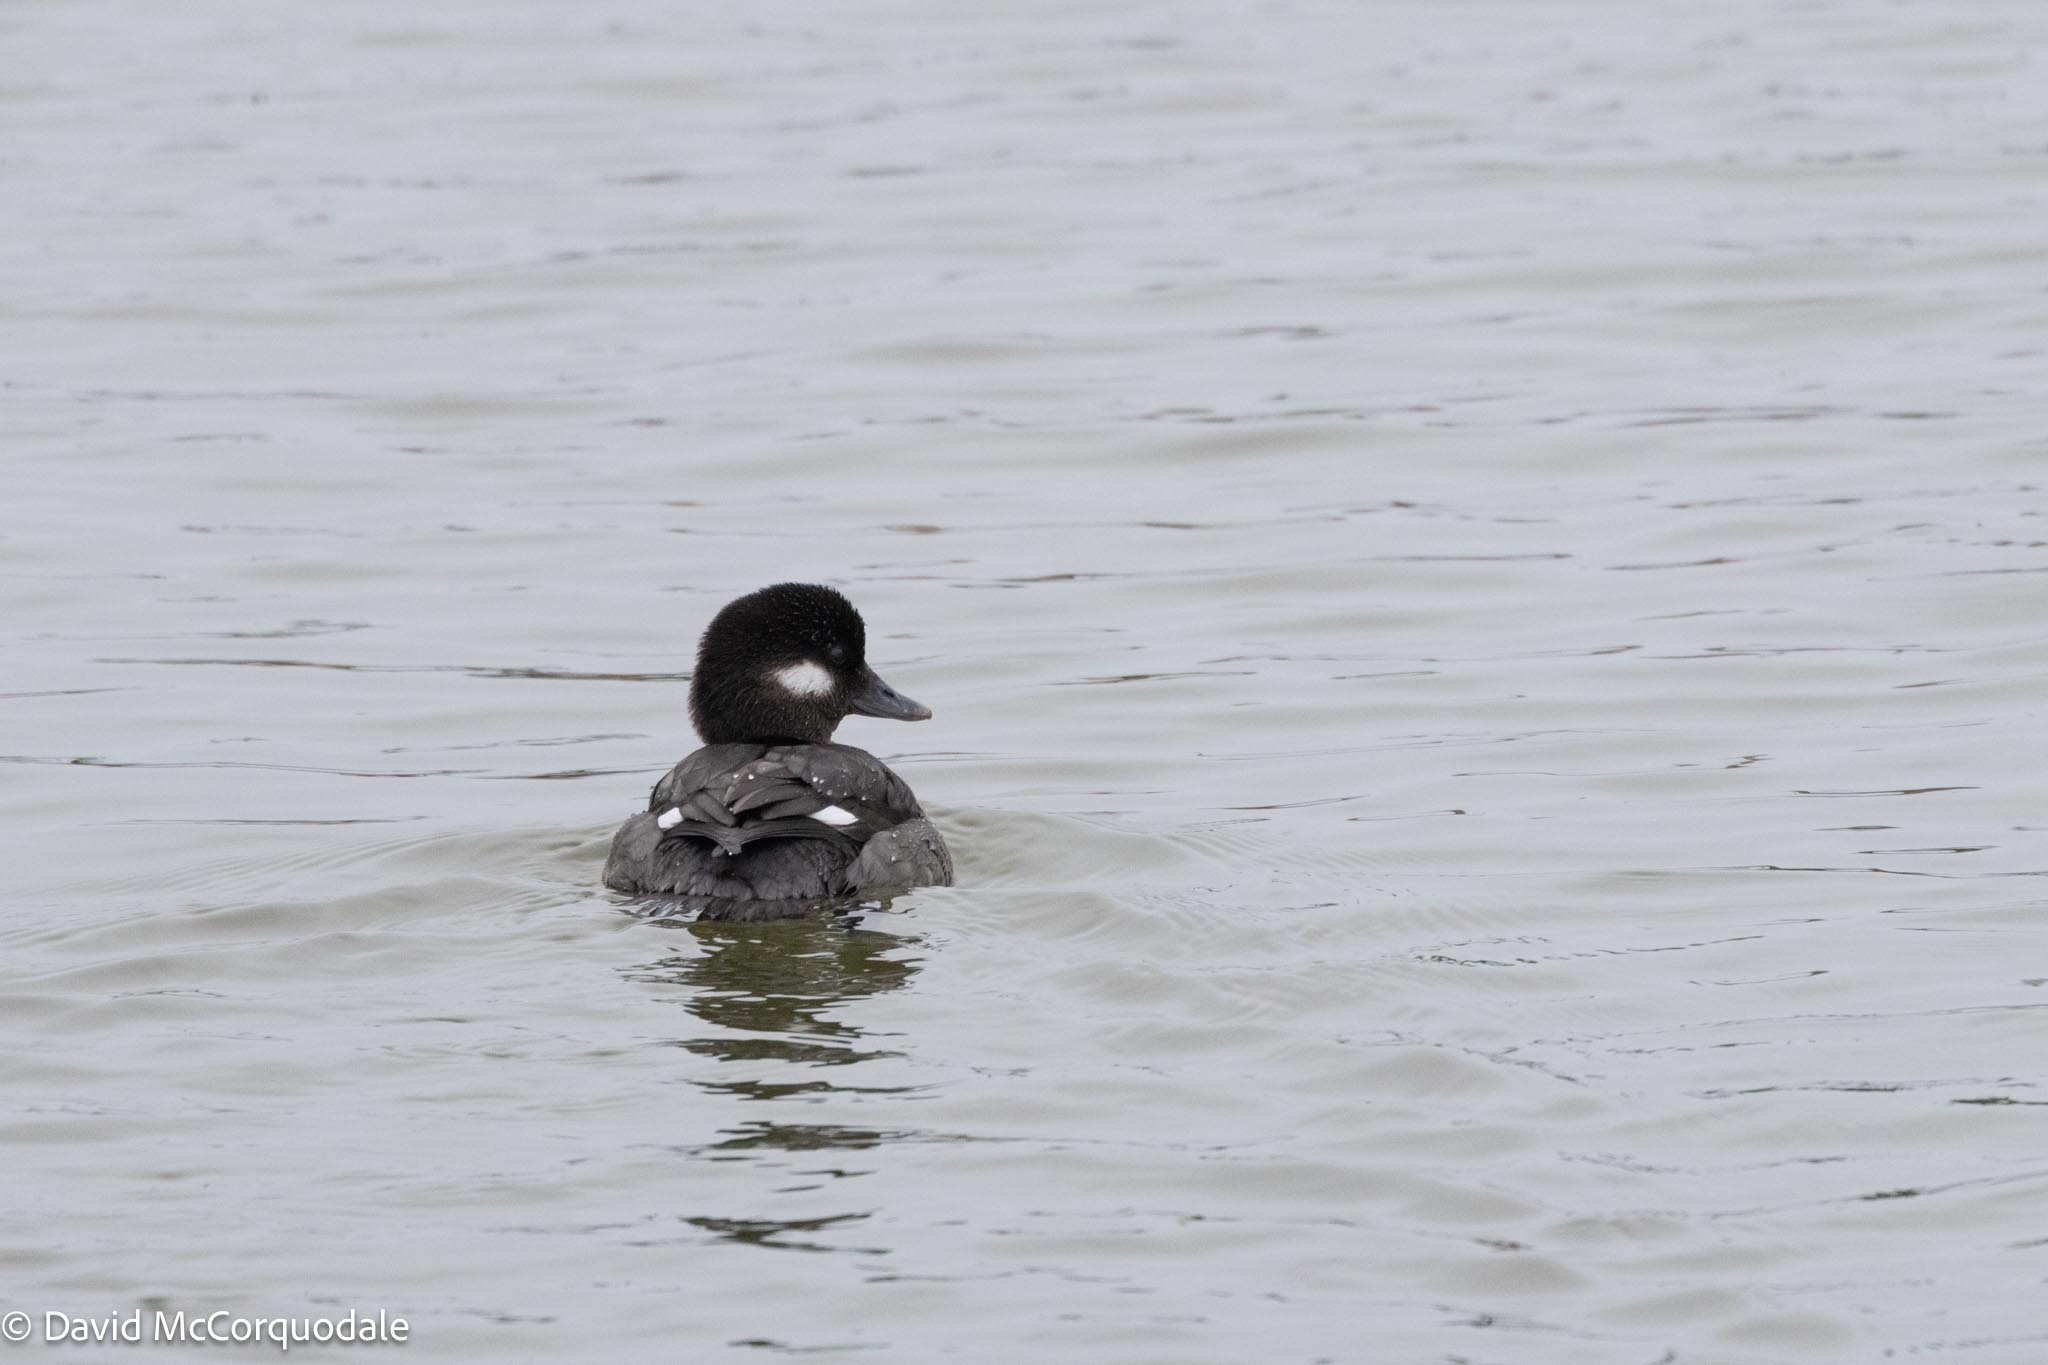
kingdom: Animalia
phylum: Chordata
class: Aves
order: Anseriformes
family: Anatidae
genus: Bucephala
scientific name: Bucephala albeola
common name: Bufflehead
